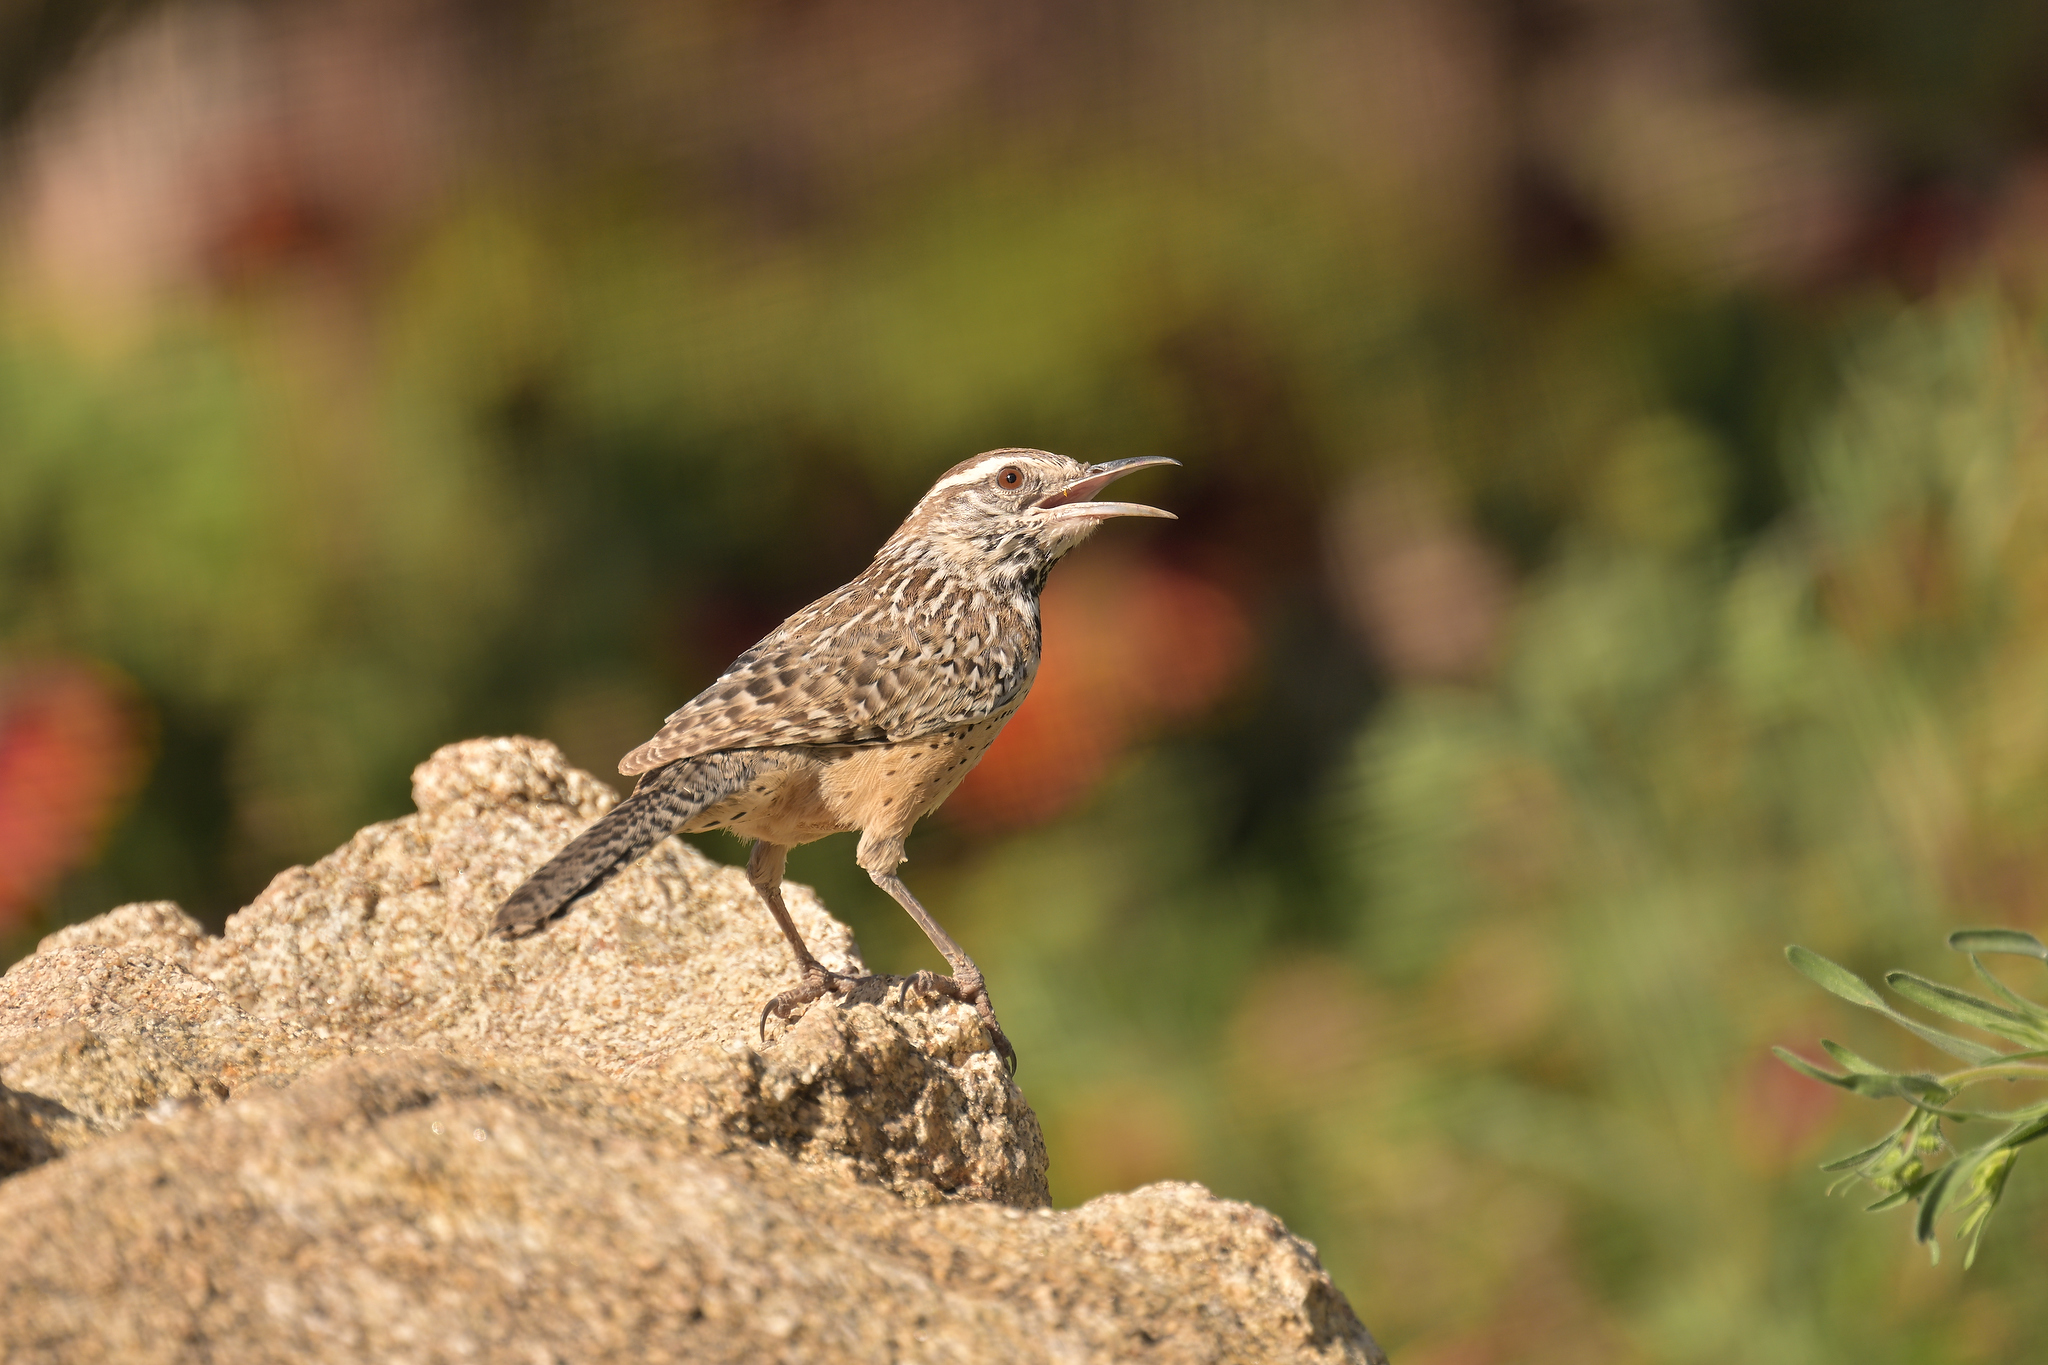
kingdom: Animalia
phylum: Chordata
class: Aves
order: Passeriformes
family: Troglodytidae
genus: Campylorhynchus
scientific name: Campylorhynchus brunneicapillus
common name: Cactus wren
